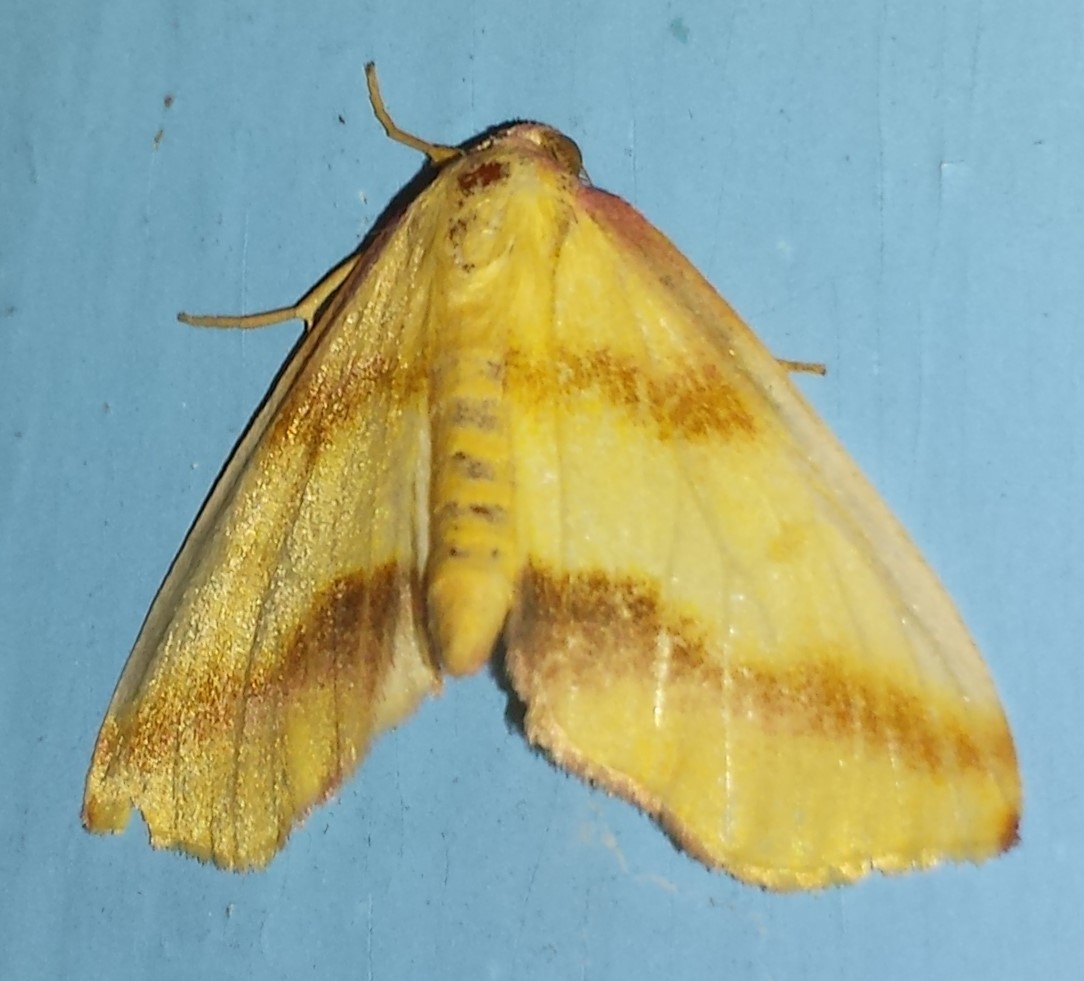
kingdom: Animalia
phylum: Arthropoda
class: Insecta
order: Lepidoptera
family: Geometridae
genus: Plagodis
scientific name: Plagodis serinaria
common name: Lemon plagodis
